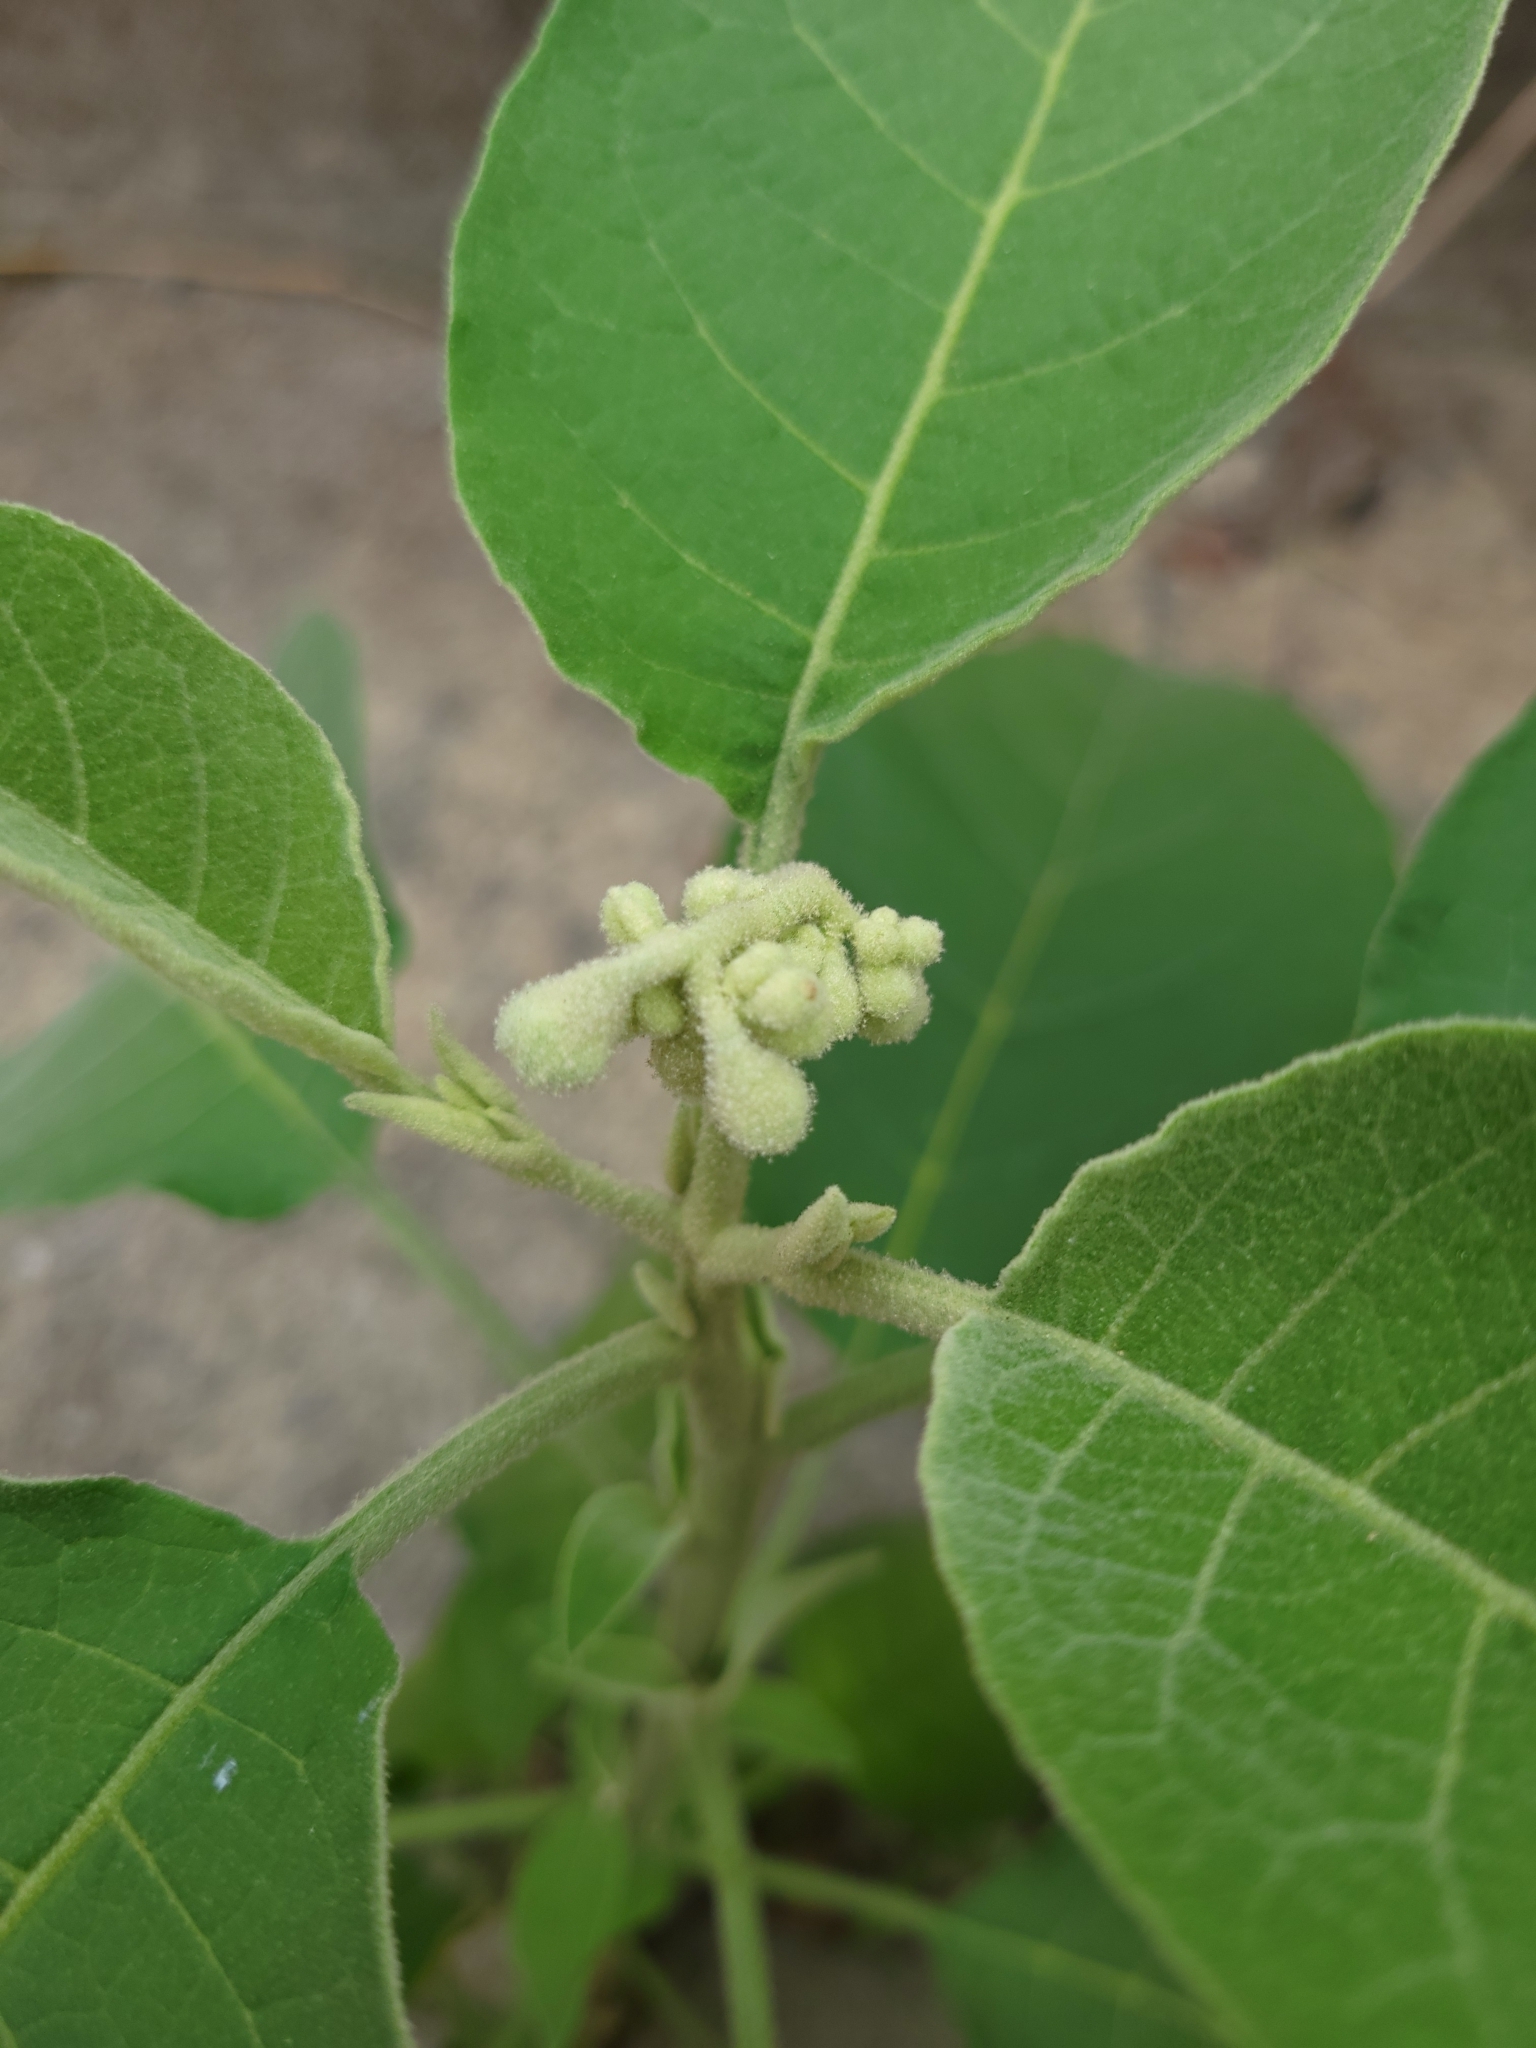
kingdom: Plantae
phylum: Tracheophyta
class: Magnoliopsida
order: Solanales
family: Solanaceae
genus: Solanum
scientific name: Solanum erianthum
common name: Tobacco-tree
